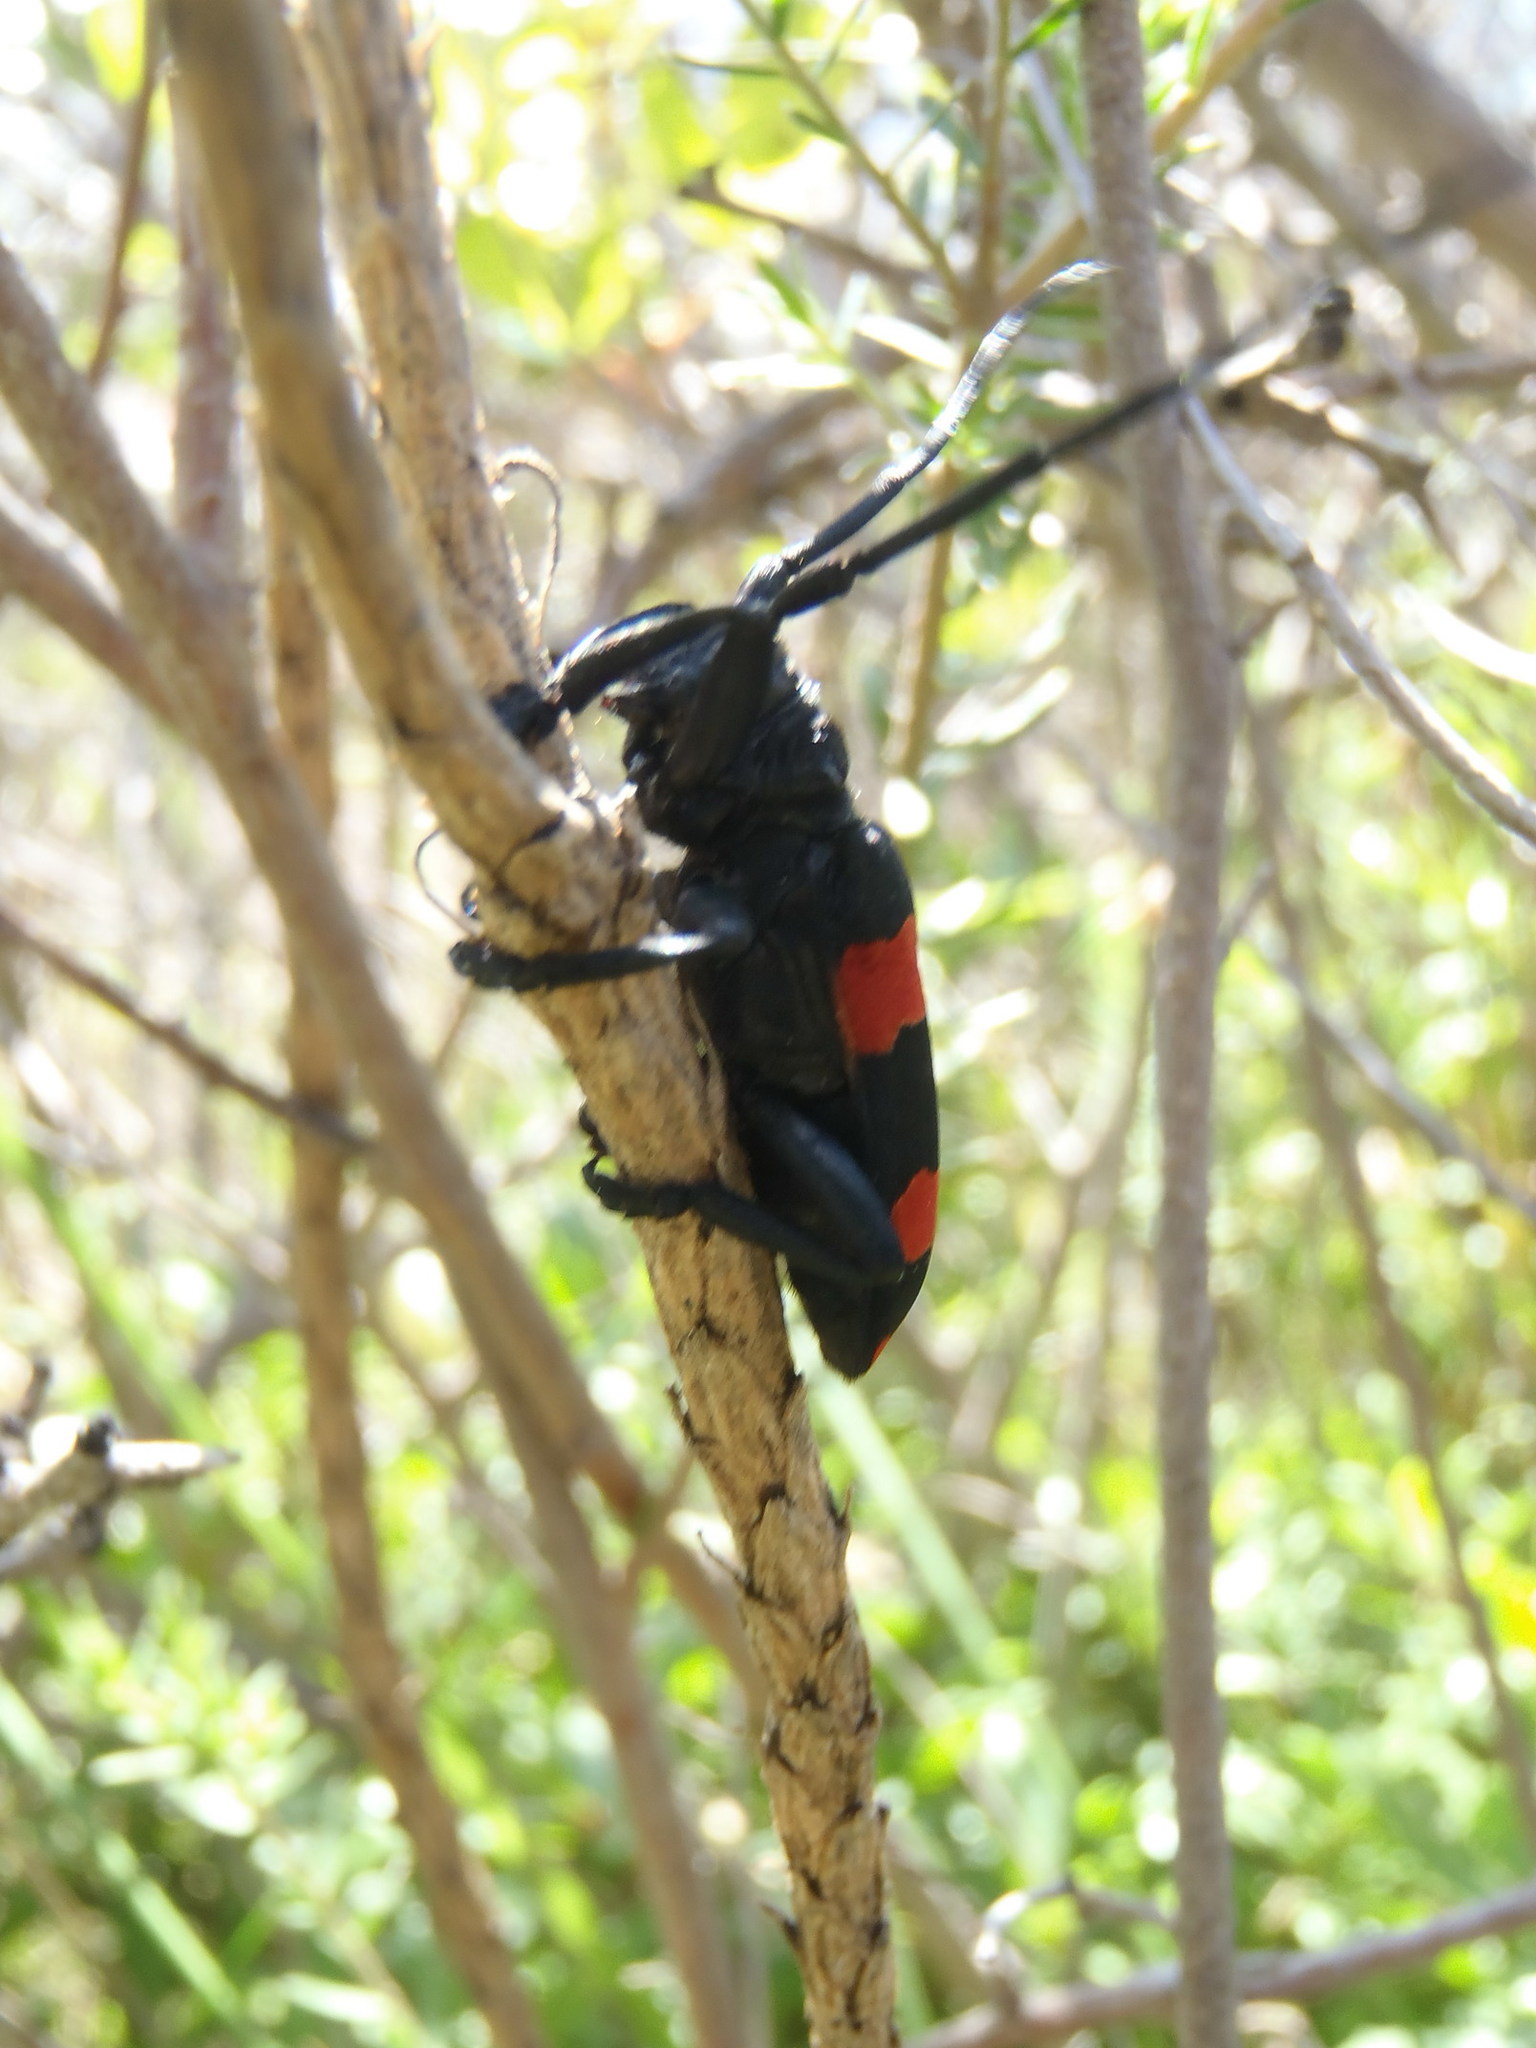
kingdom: Animalia
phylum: Arthropoda
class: Insecta
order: Coleoptera
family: Cerambycidae
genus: Ceroplesis
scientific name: Ceroplesis aethiops
